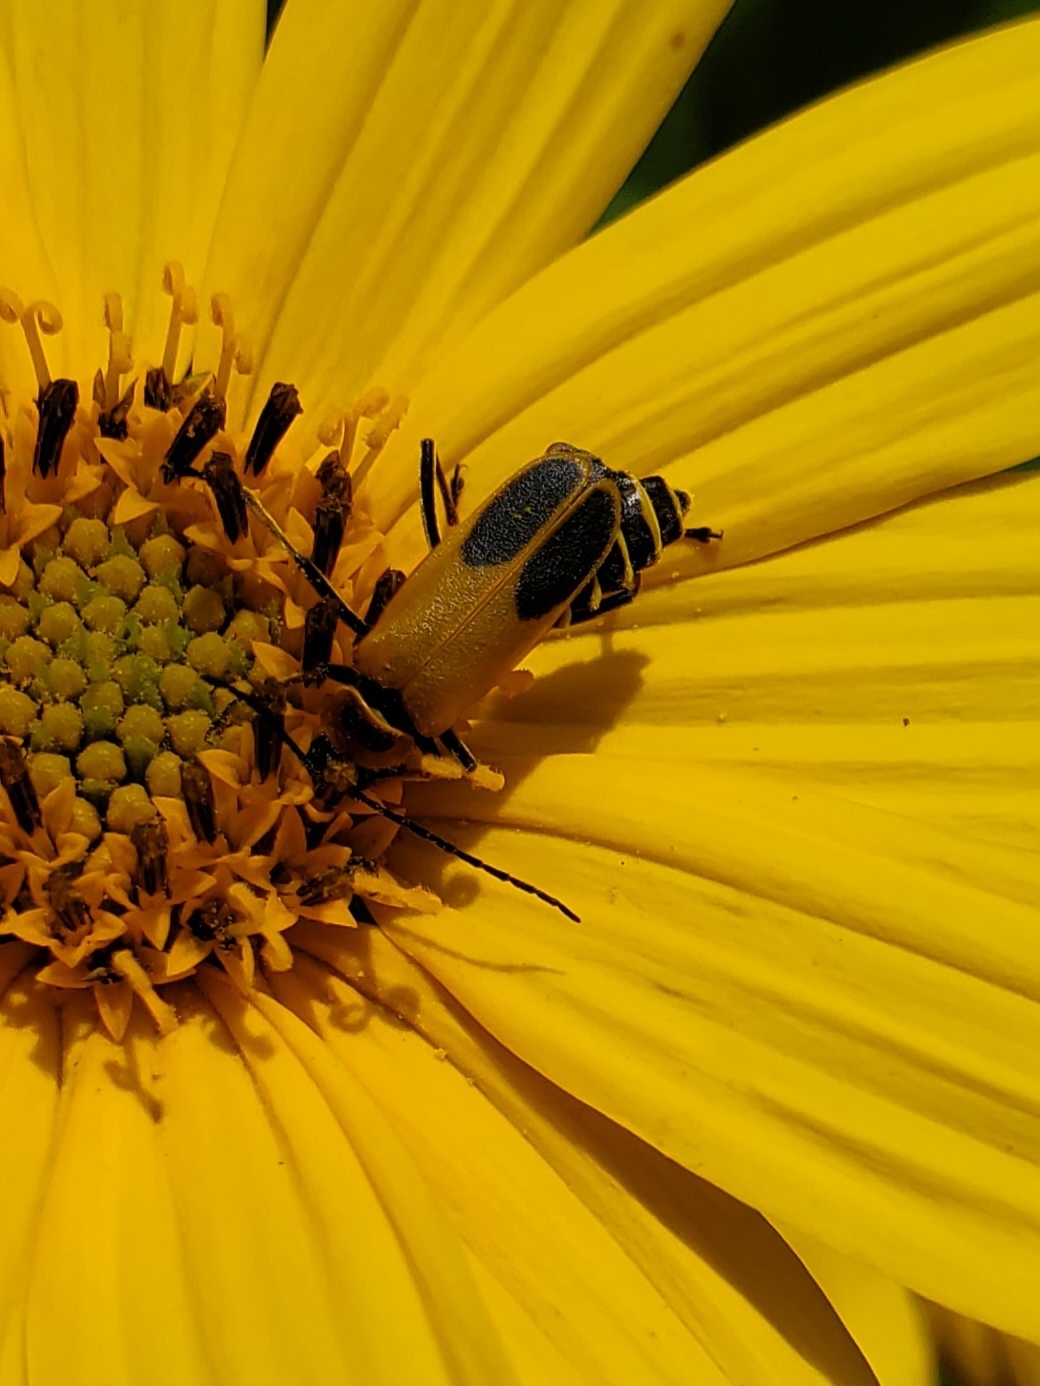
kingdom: Animalia
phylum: Arthropoda
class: Insecta
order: Coleoptera
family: Cantharidae
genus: Chauliognathus
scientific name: Chauliognathus pensylvanicus
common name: Goldenrod soldier beetle
